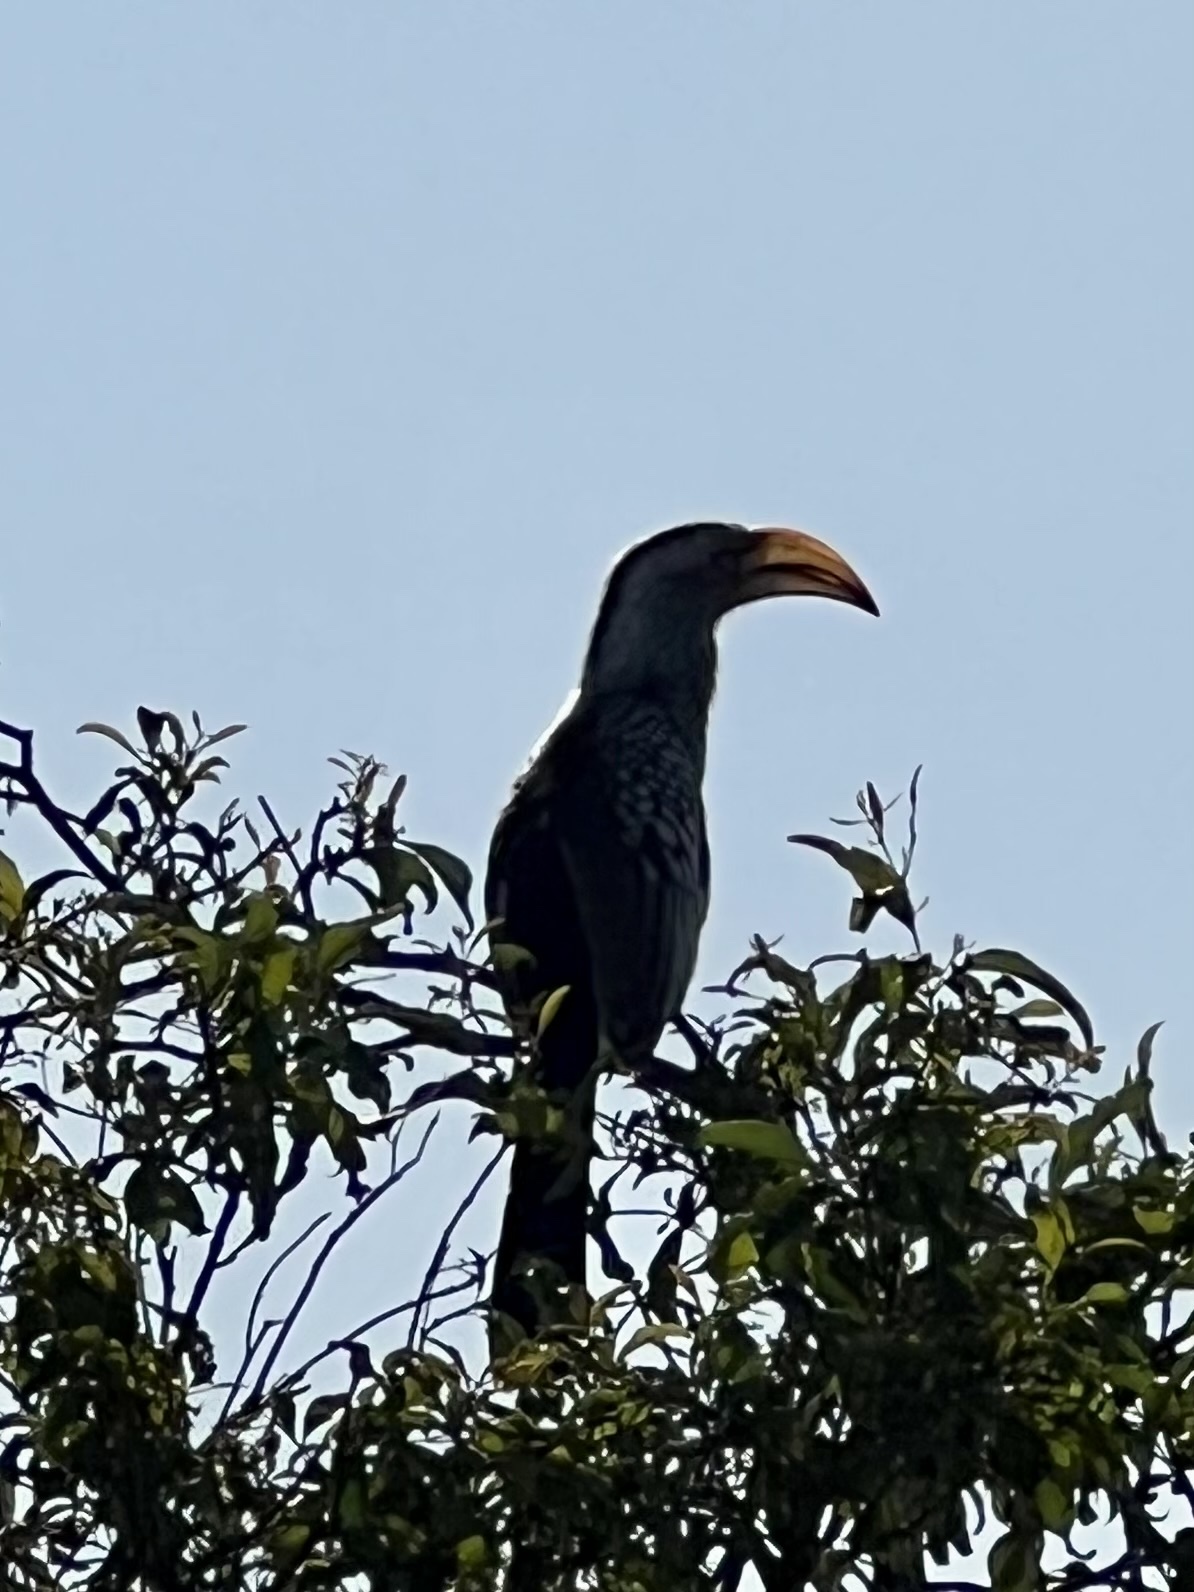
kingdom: Animalia
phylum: Chordata
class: Aves
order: Bucerotiformes
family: Bucerotidae
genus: Tockus
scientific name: Tockus leucomelas
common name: Southern yellow-billed hornbill
